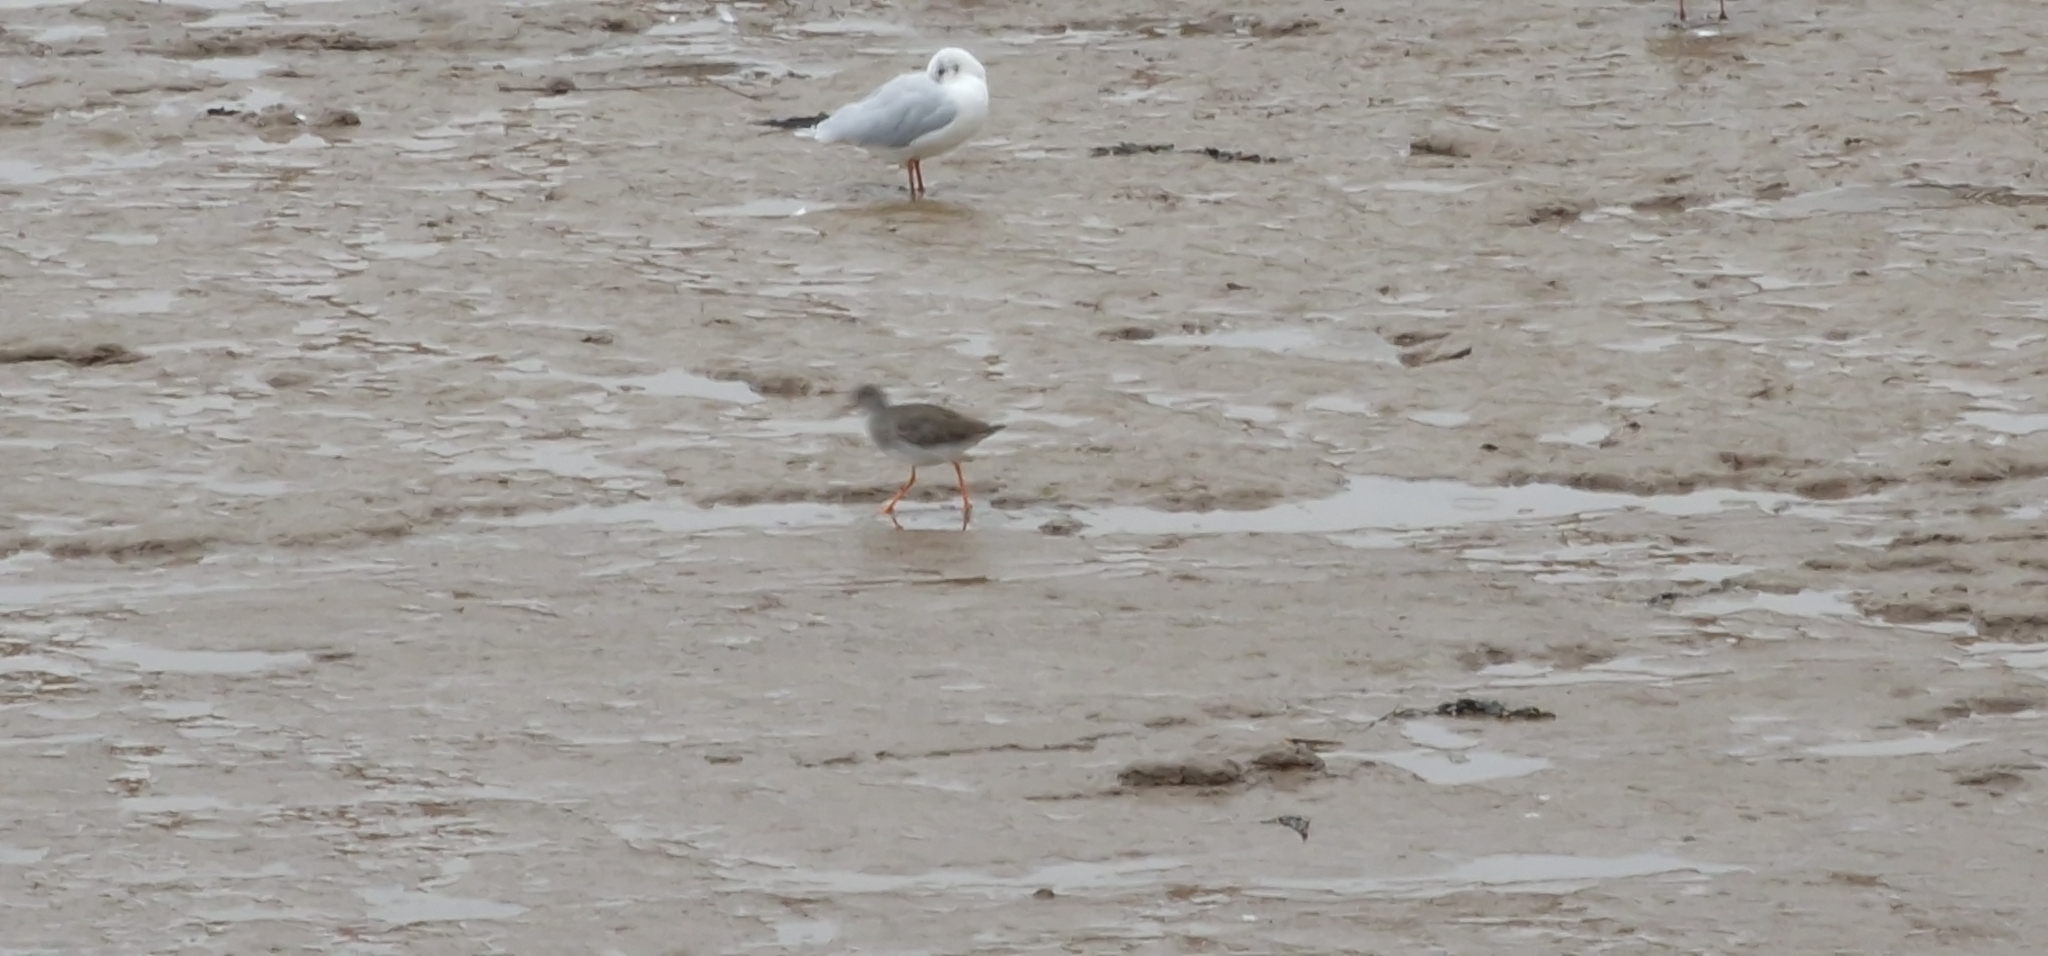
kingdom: Animalia
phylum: Chordata
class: Aves
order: Charadriiformes
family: Scolopacidae
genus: Tringa
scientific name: Tringa totanus
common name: Common redshank
